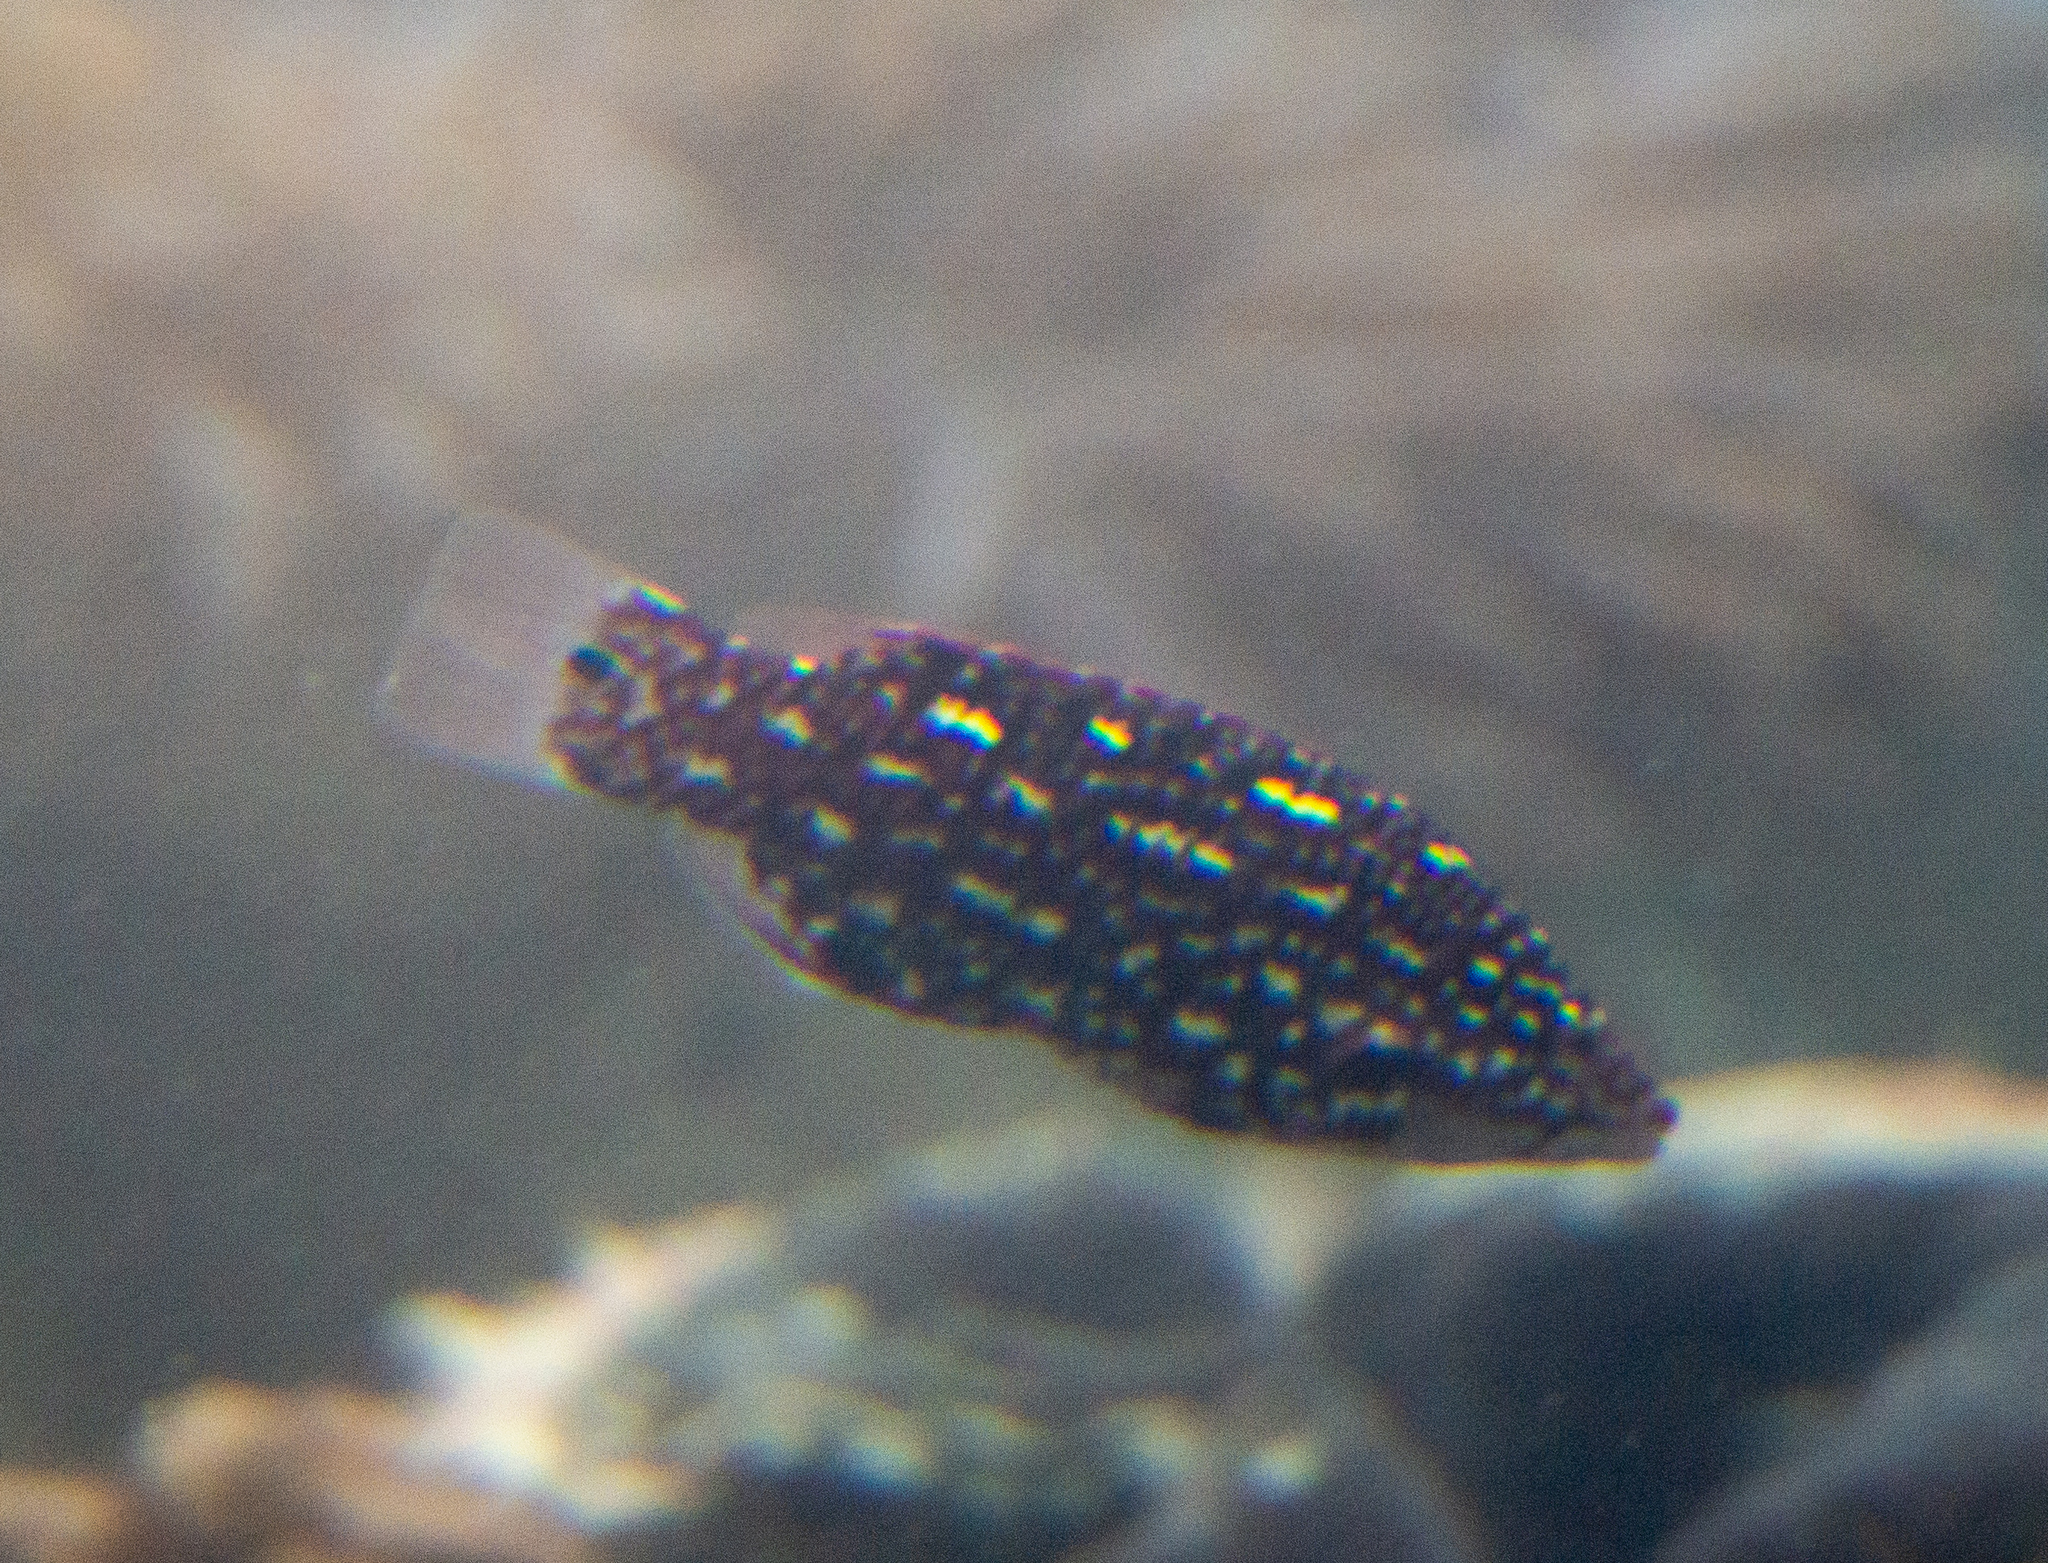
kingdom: Animalia
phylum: Chordata
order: Perciformes
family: Labridae
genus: Bodianus
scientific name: Bodianus diana
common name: Diana's hogfish
